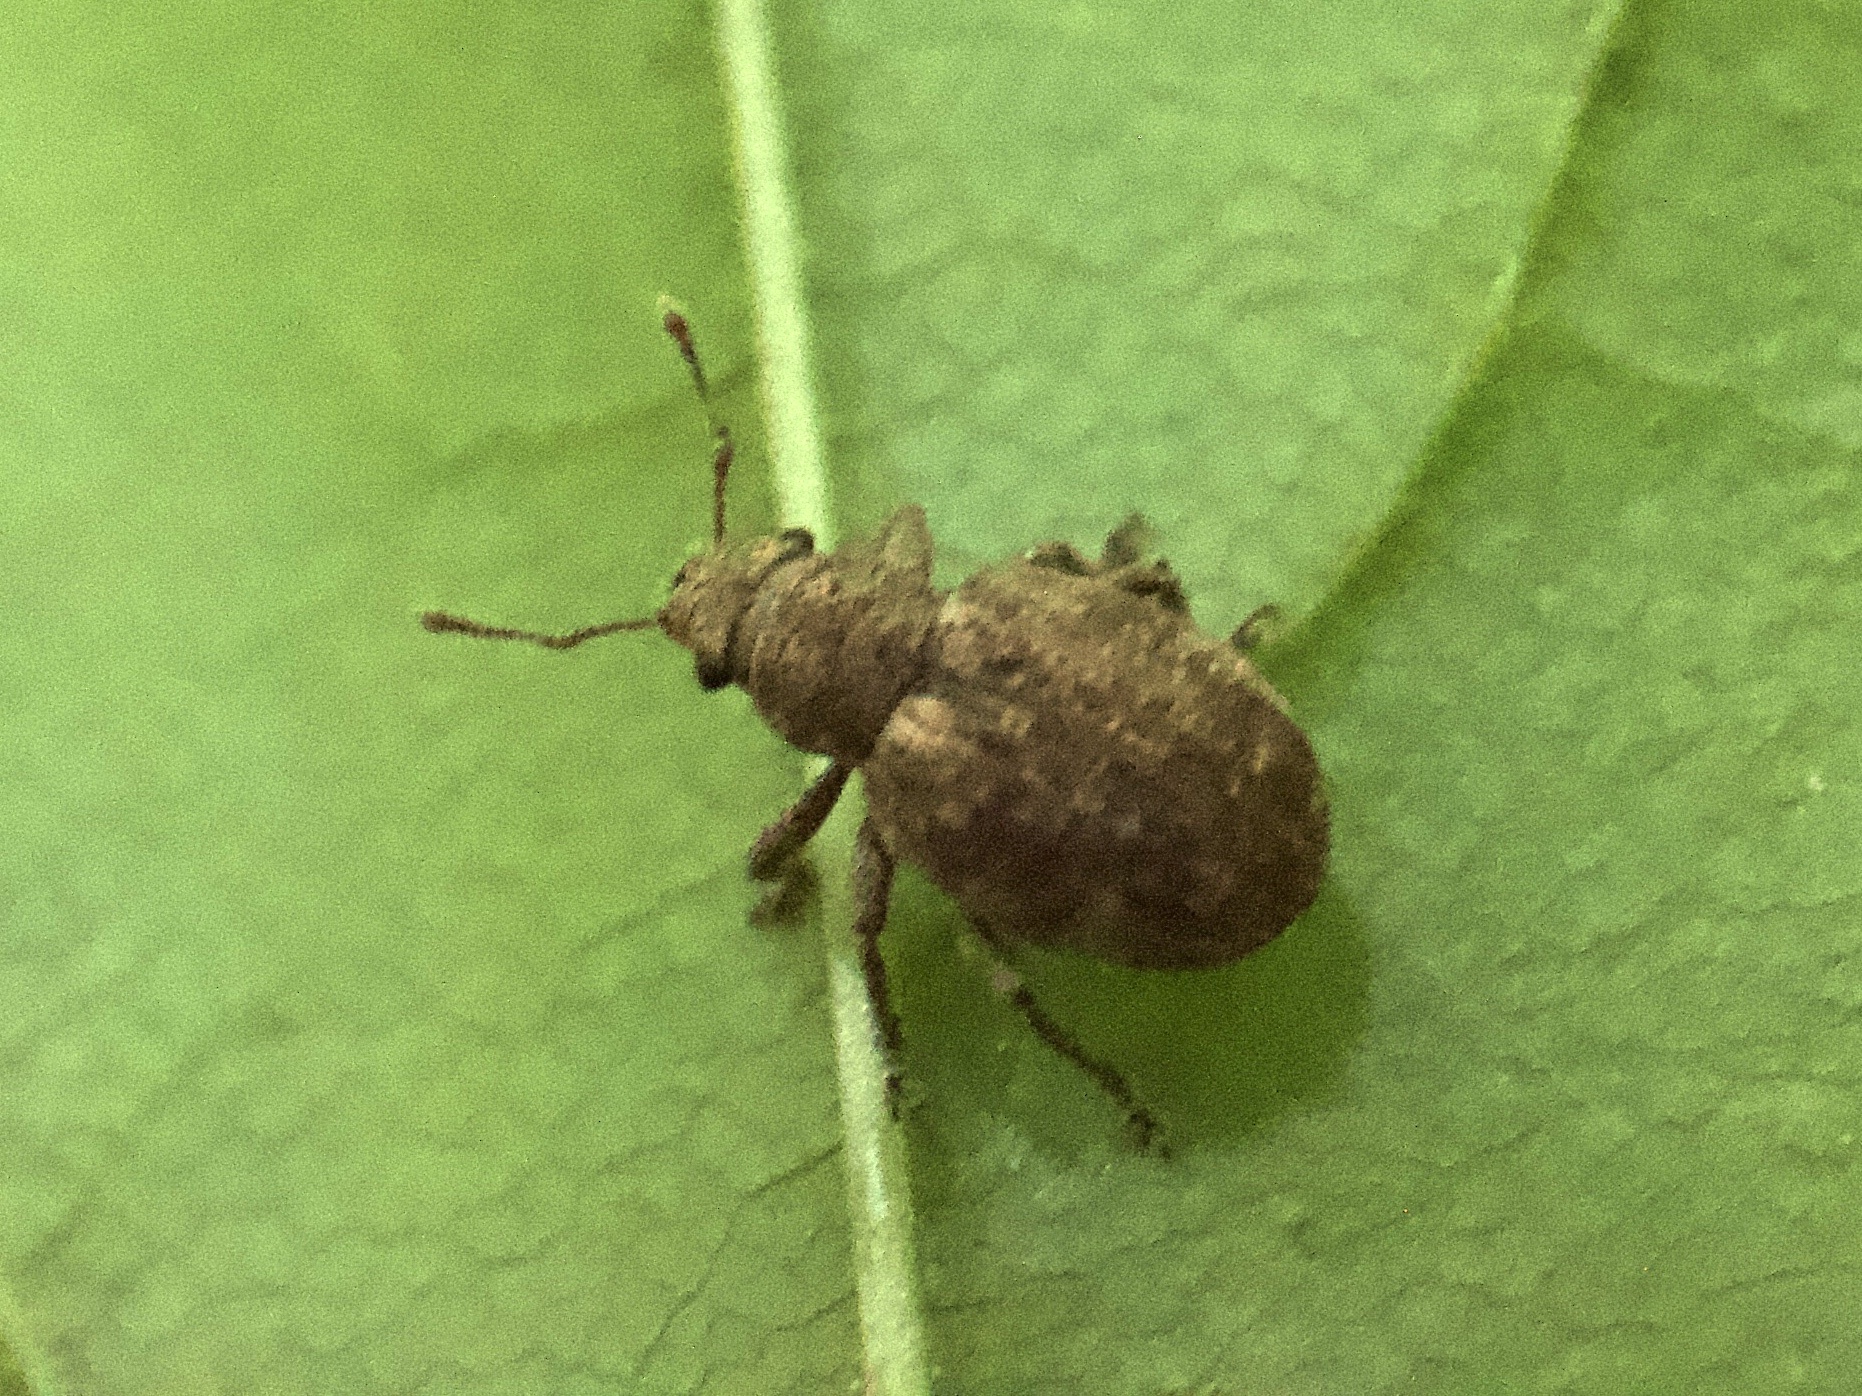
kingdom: Animalia
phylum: Arthropoda
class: Insecta
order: Coleoptera
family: Curculionidae
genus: Strophosoma
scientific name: Strophosoma capitatum
